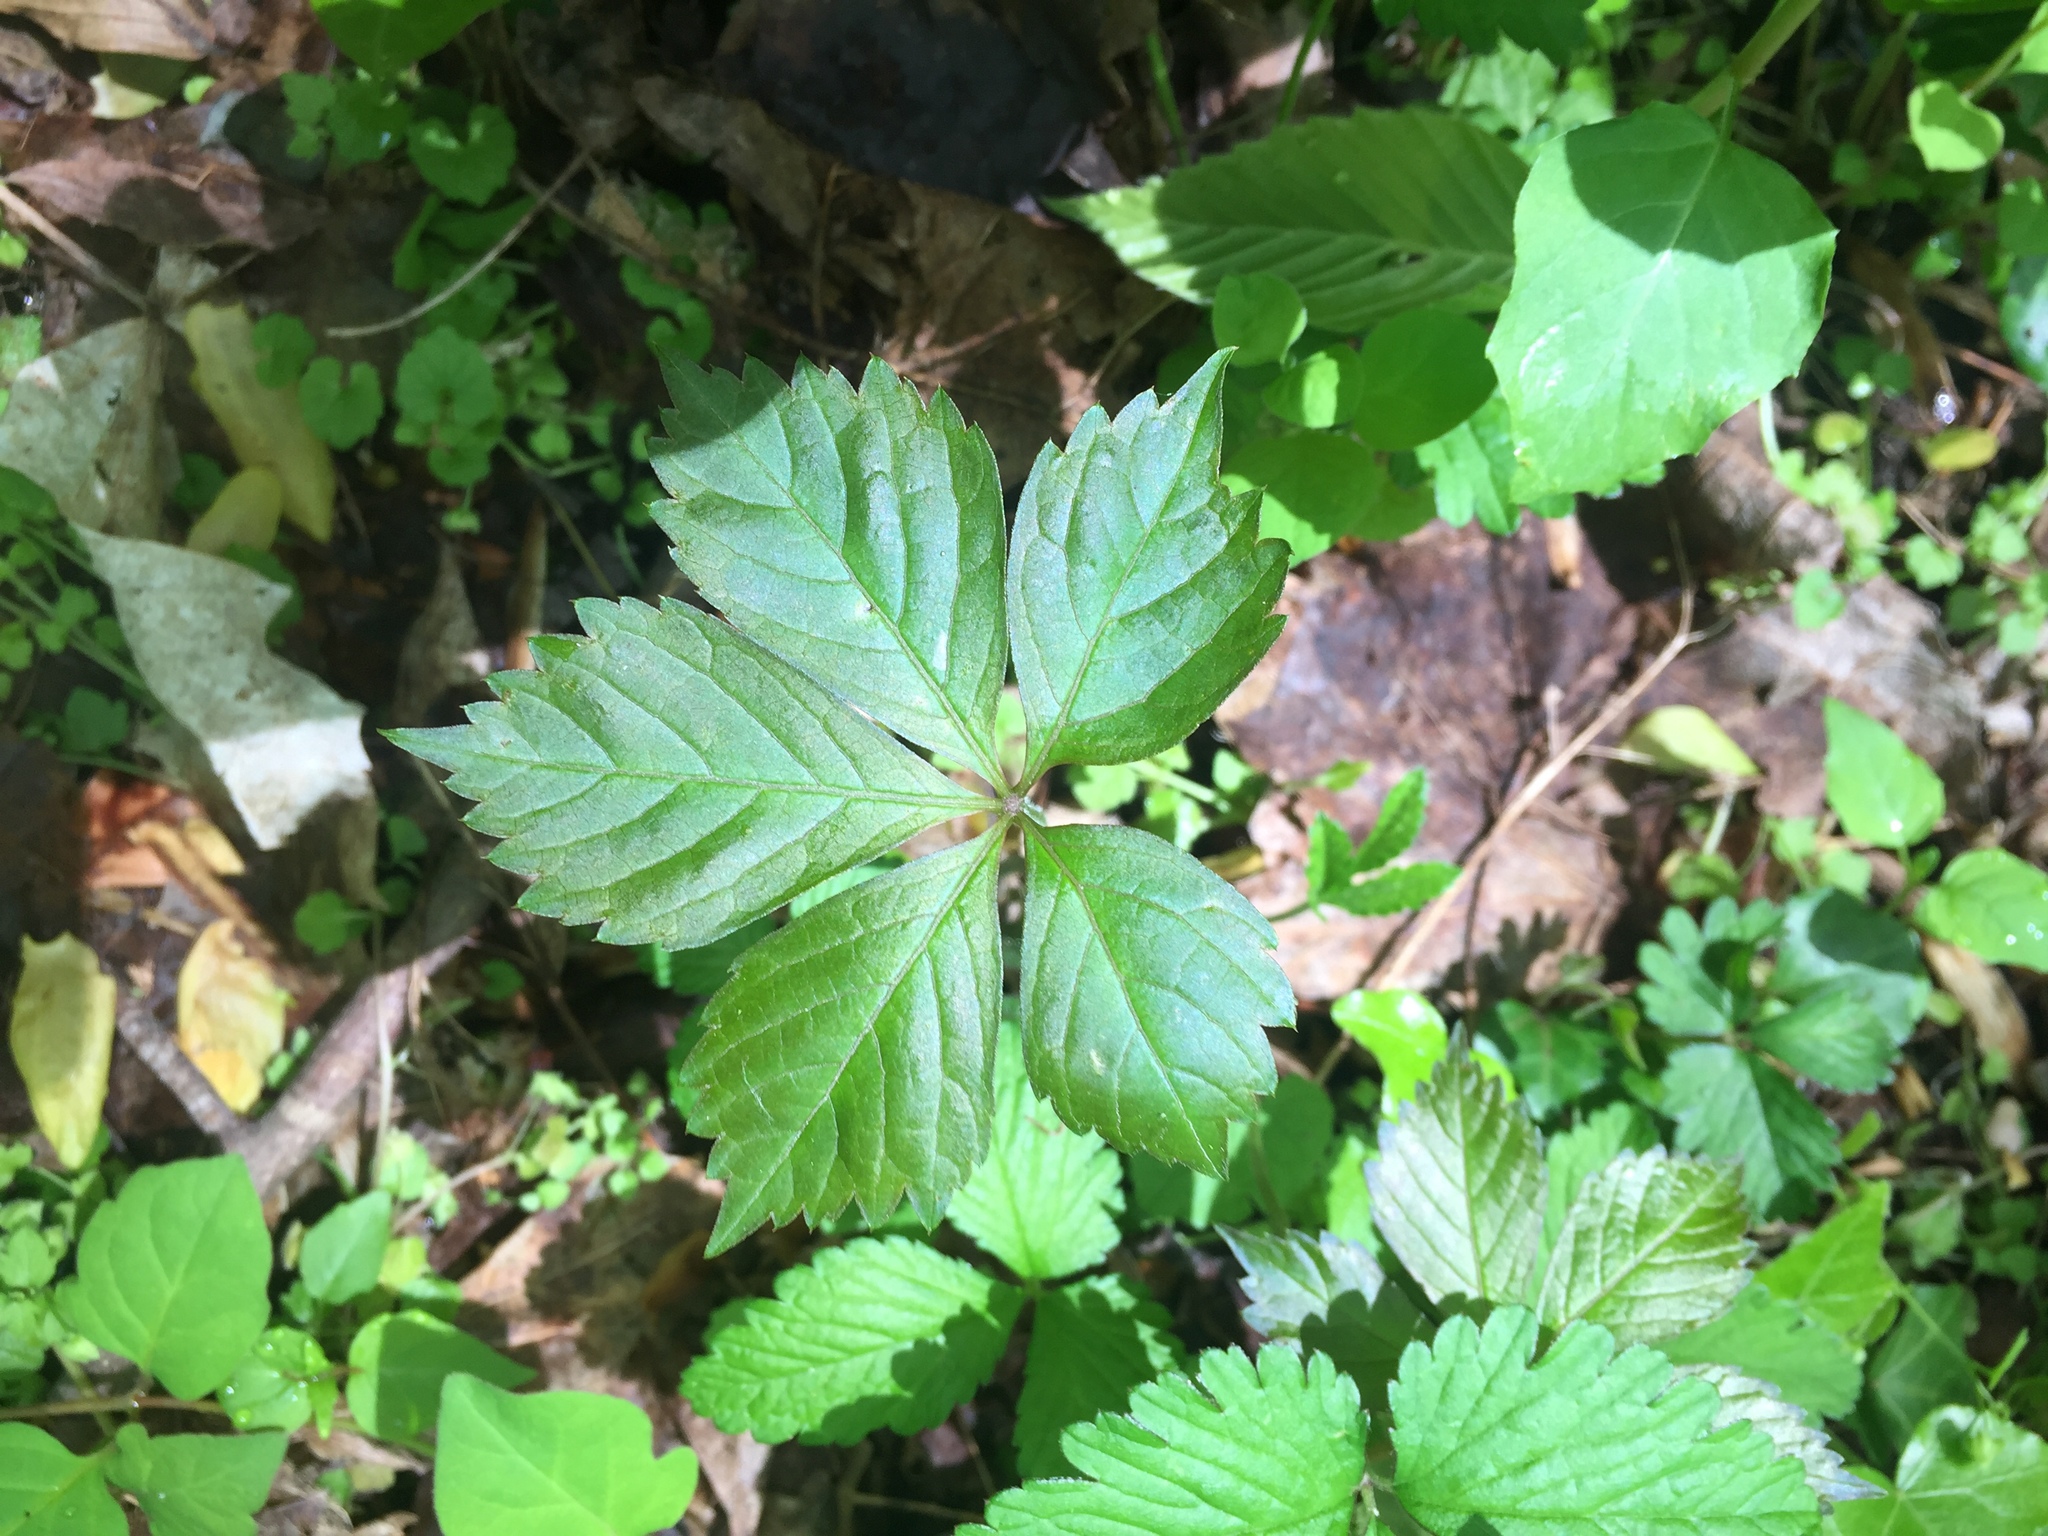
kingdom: Plantae
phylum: Tracheophyta
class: Magnoliopsida
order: Vitales
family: Vitaceae
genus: Parthenocissus
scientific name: Parthenocissus quinquefolia
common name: Virginia-creeper
